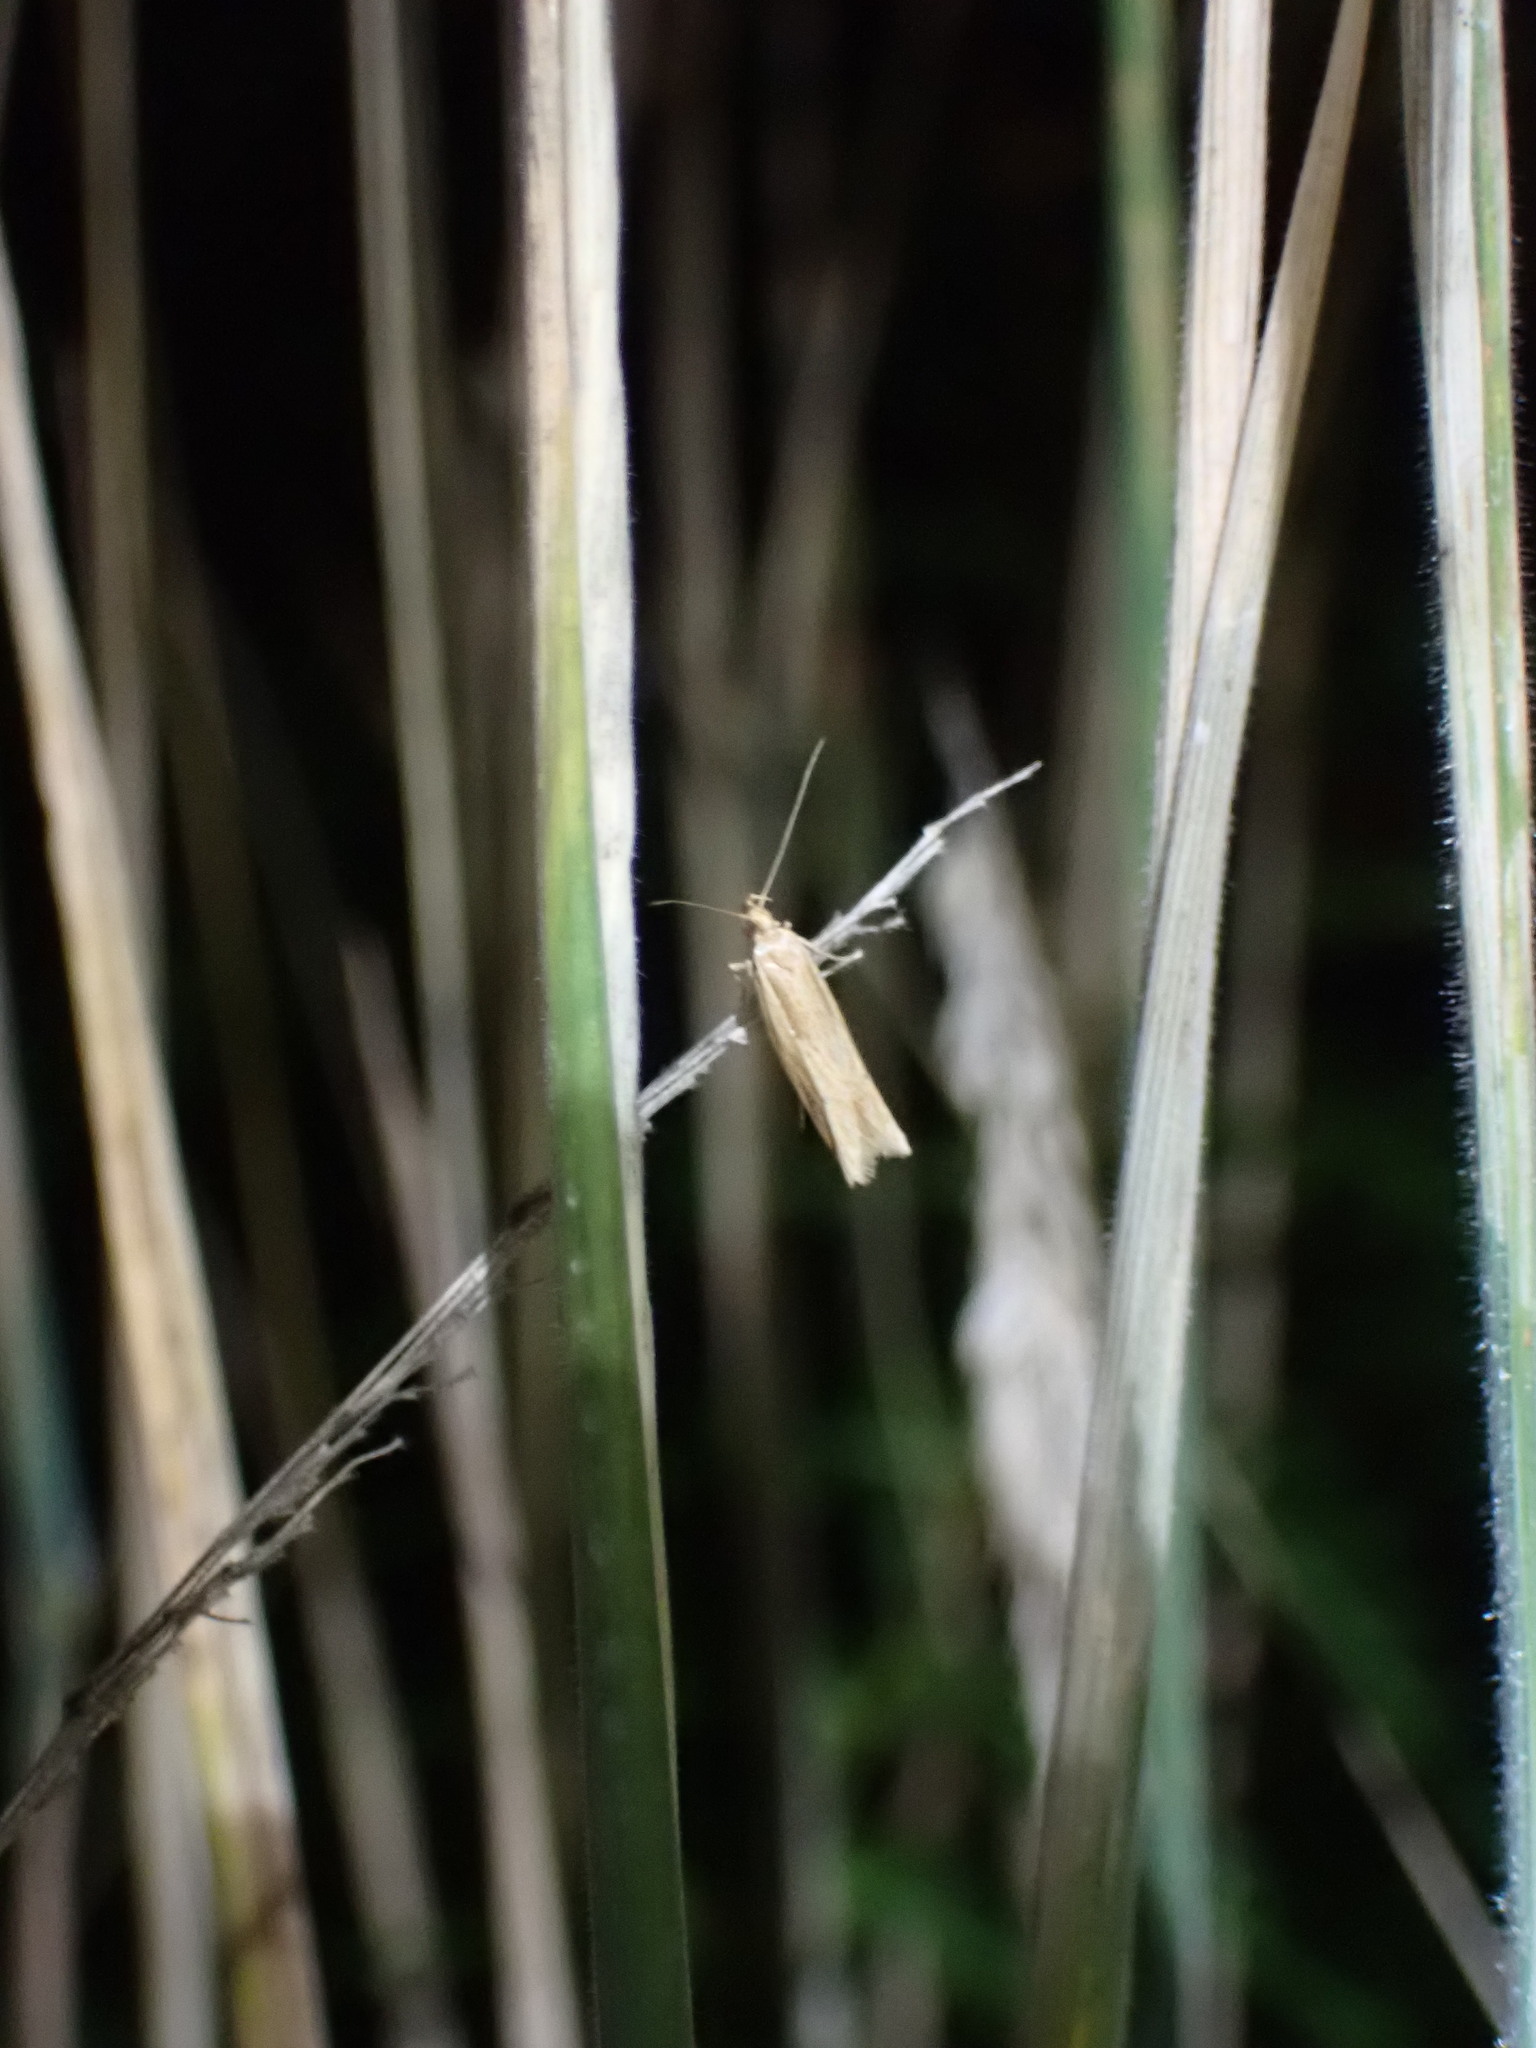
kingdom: Animalia
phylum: Arthropoda
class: Insecta
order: Lepidoptera
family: Depressariidae
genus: Eutorna
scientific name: Eutorna symmorpha
